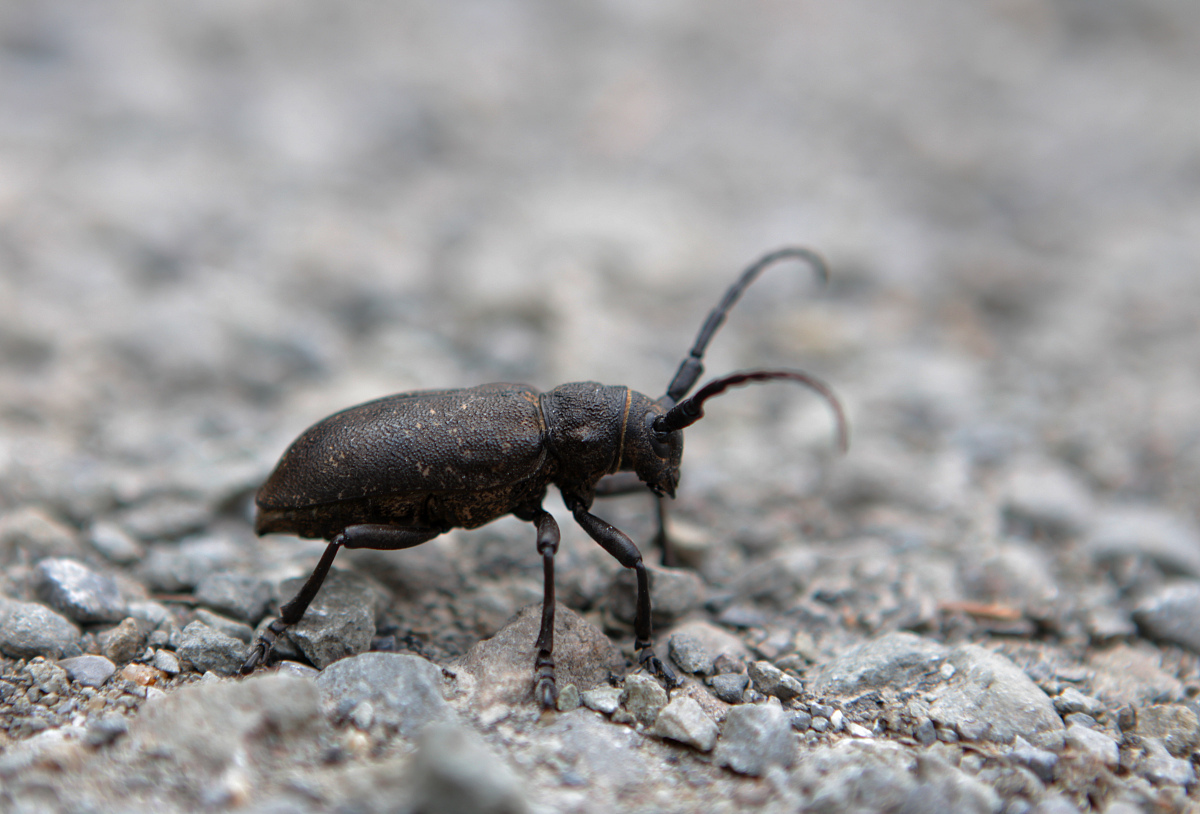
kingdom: Animalia
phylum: Arthropoda
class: Insecta
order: Coleoptera
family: Cerambycidae
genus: Lamia
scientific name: Lamia textor
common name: Weaver beetle
